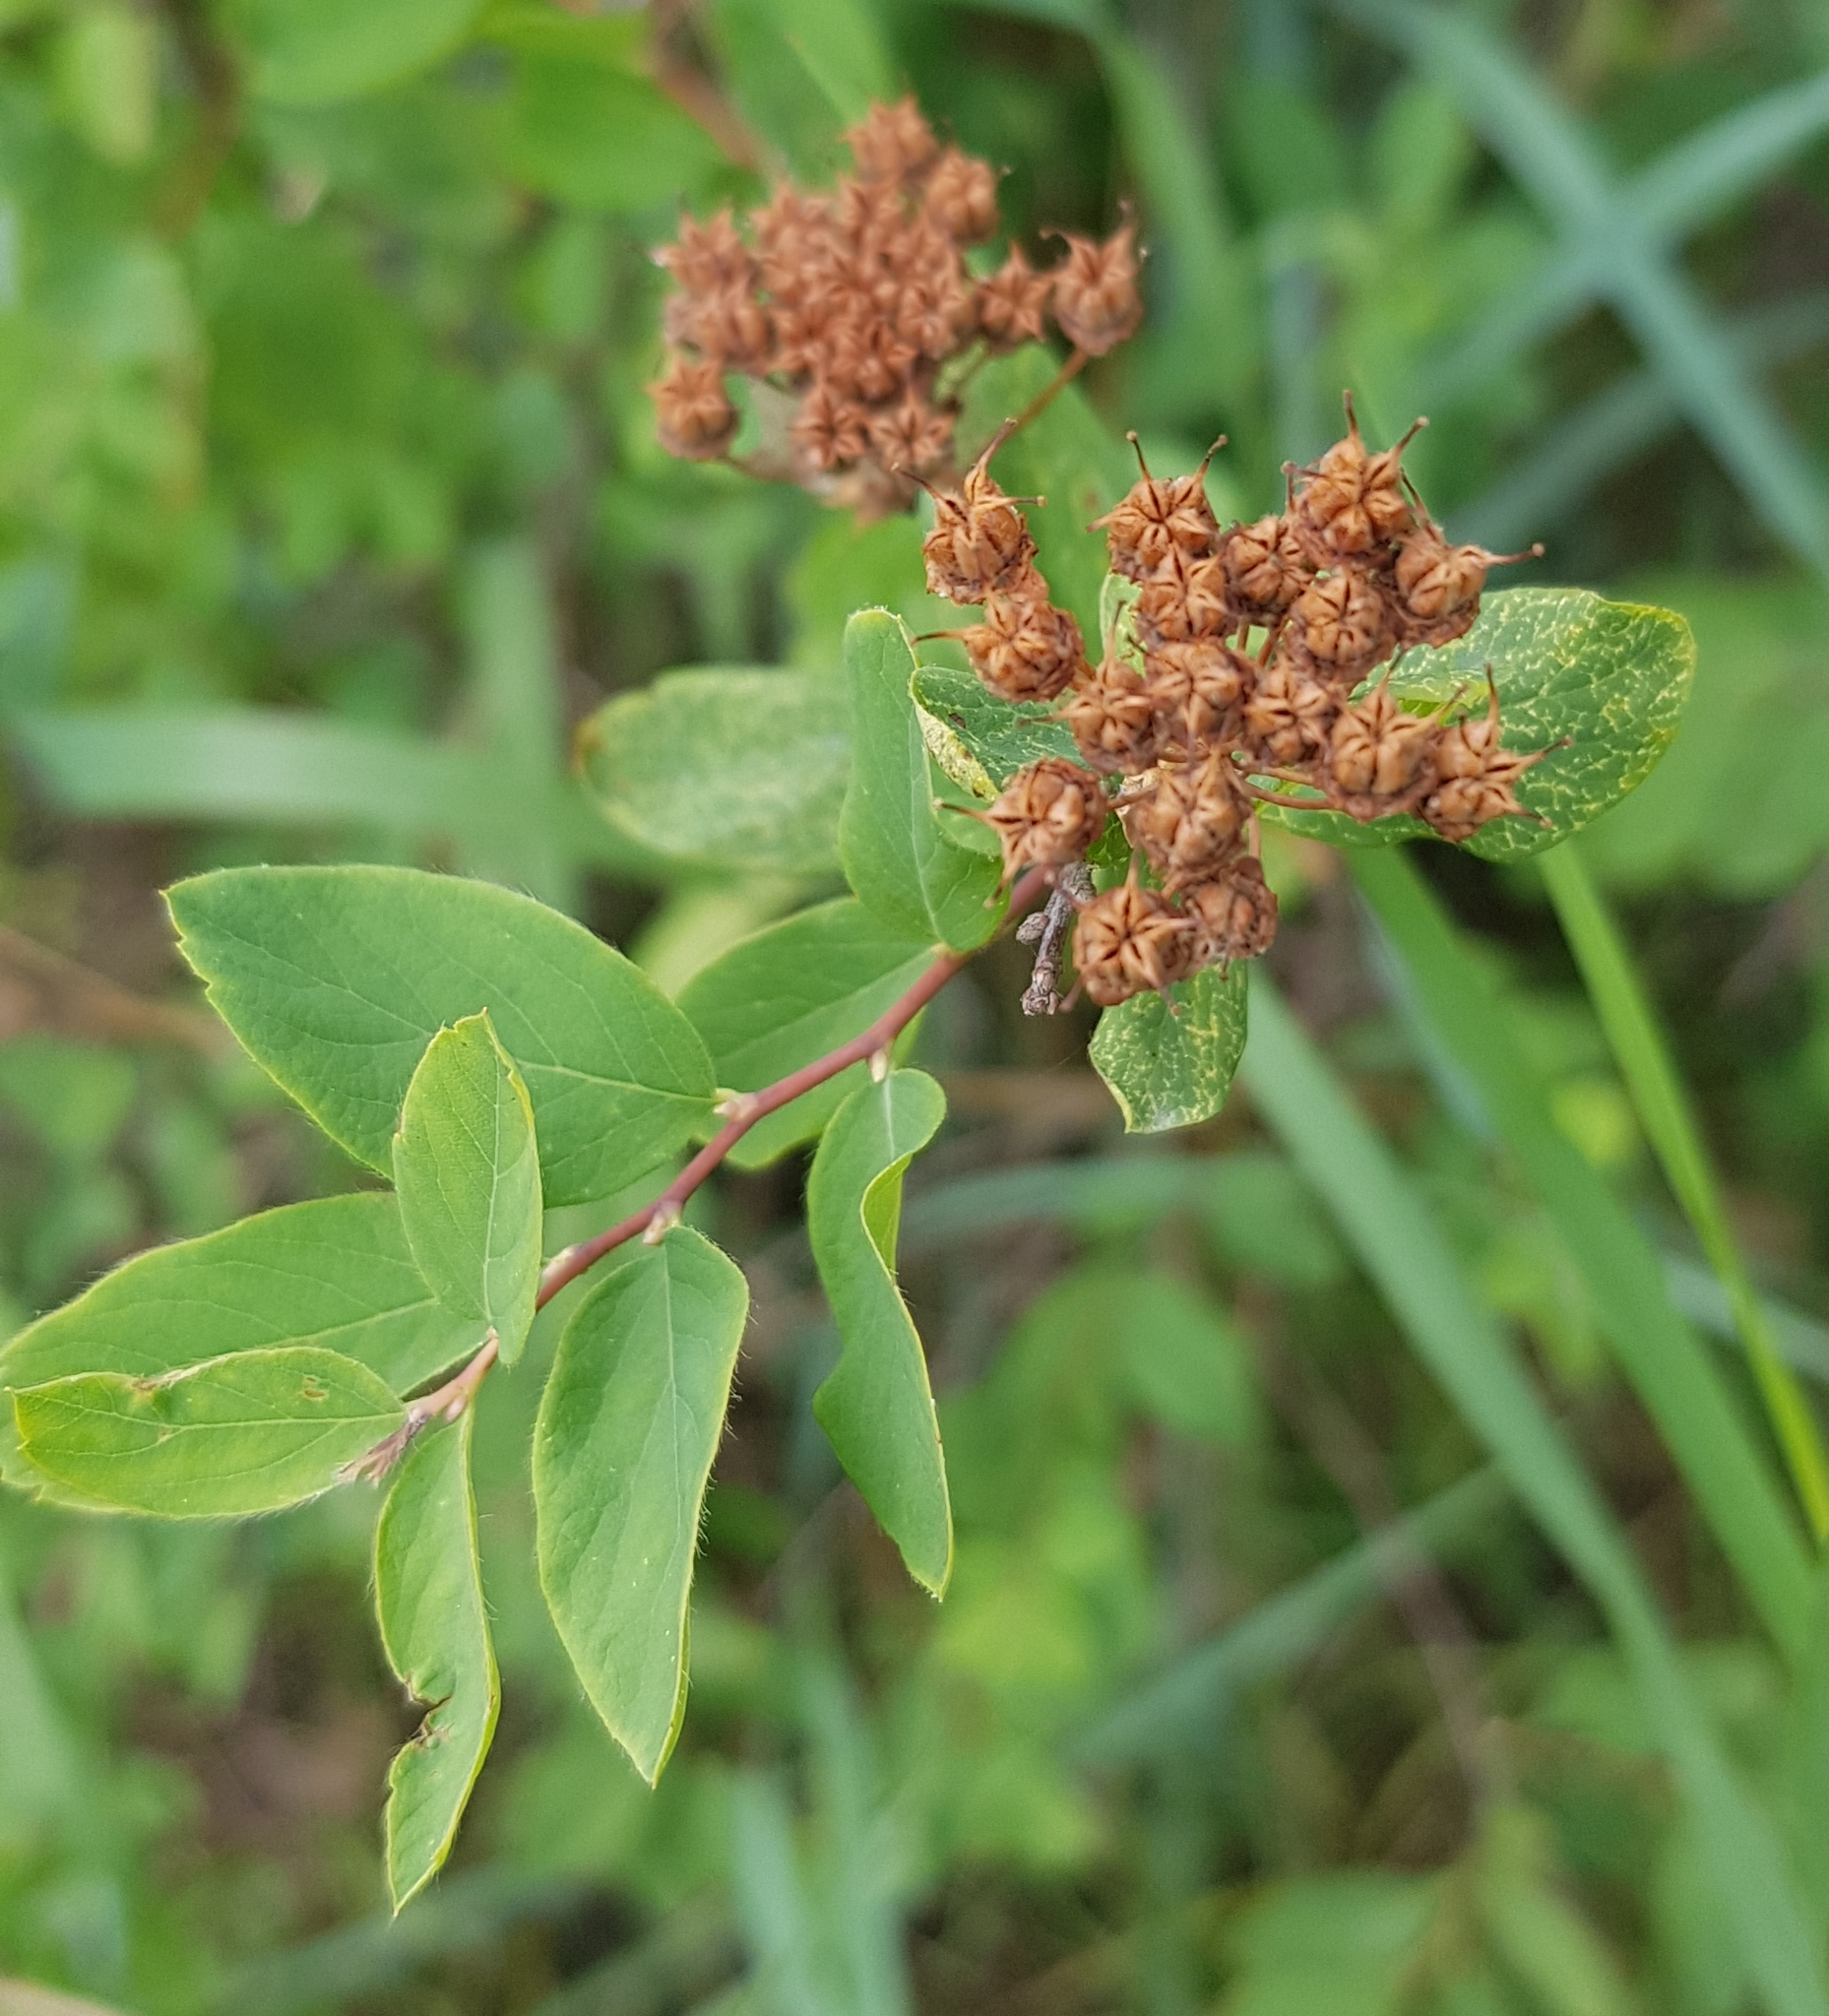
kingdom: Plantae
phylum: Tracheophyta
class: Magnoliopsida
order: Rosales
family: Rosaceae
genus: Spiraea
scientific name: Spiraea media
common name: Russian spiraea
